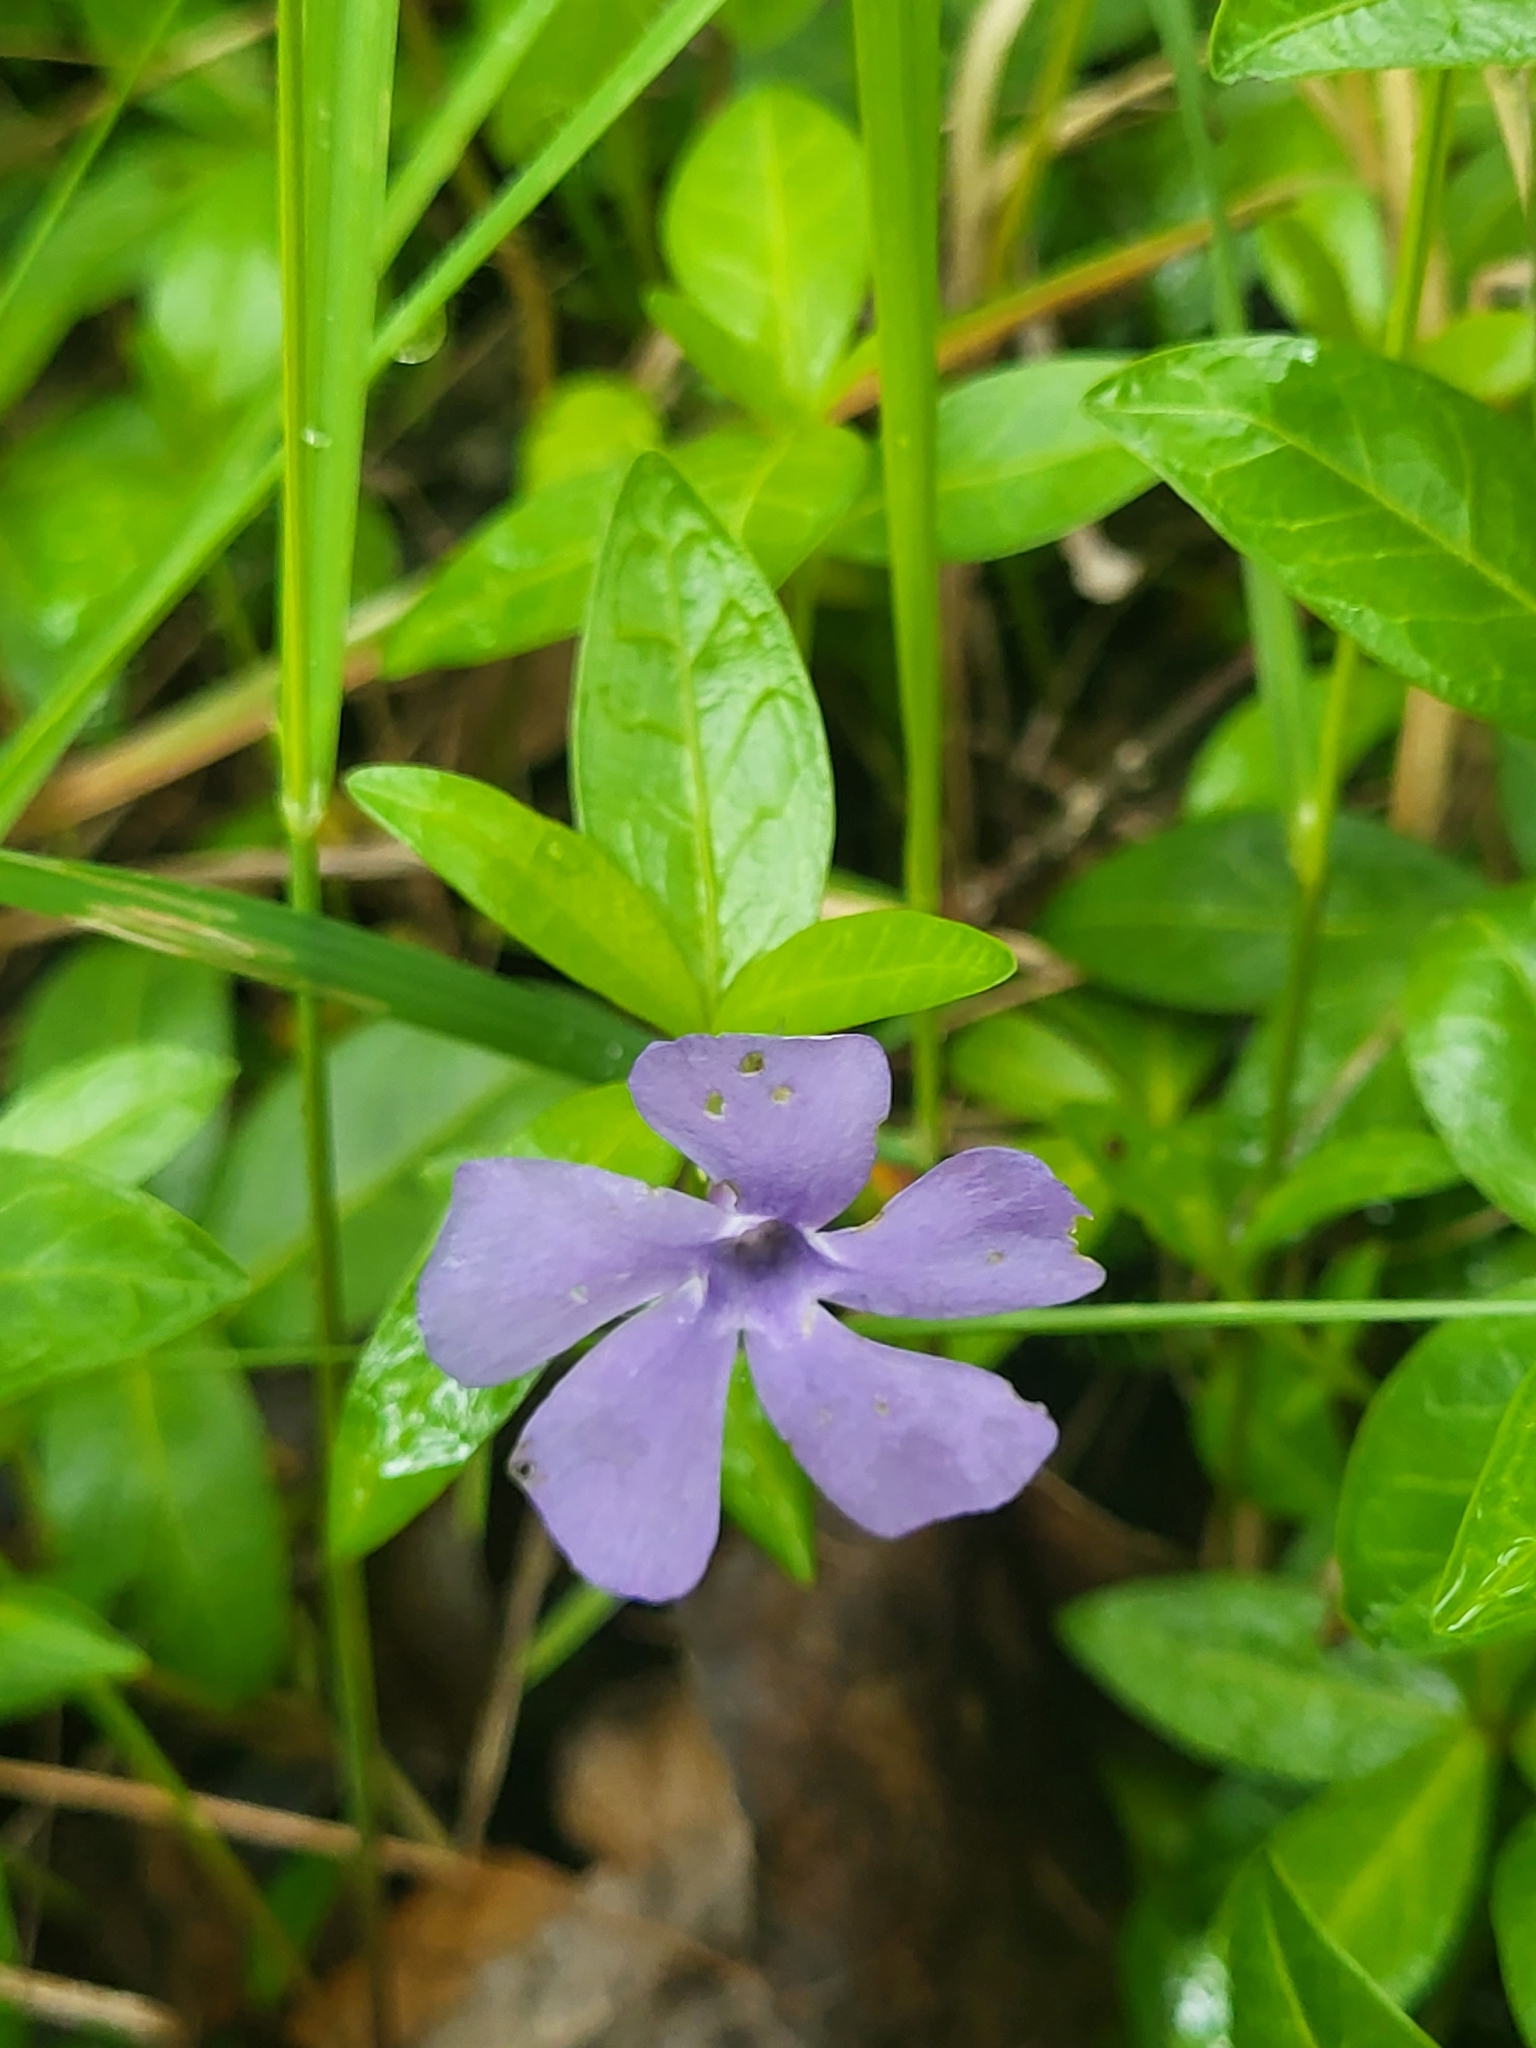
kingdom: Plantae
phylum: Tracheophyta
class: Magnoliopsida
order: Gentianales
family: Apocynaceae
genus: Vinca
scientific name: Vinca minor
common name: Lesser periwinkle
